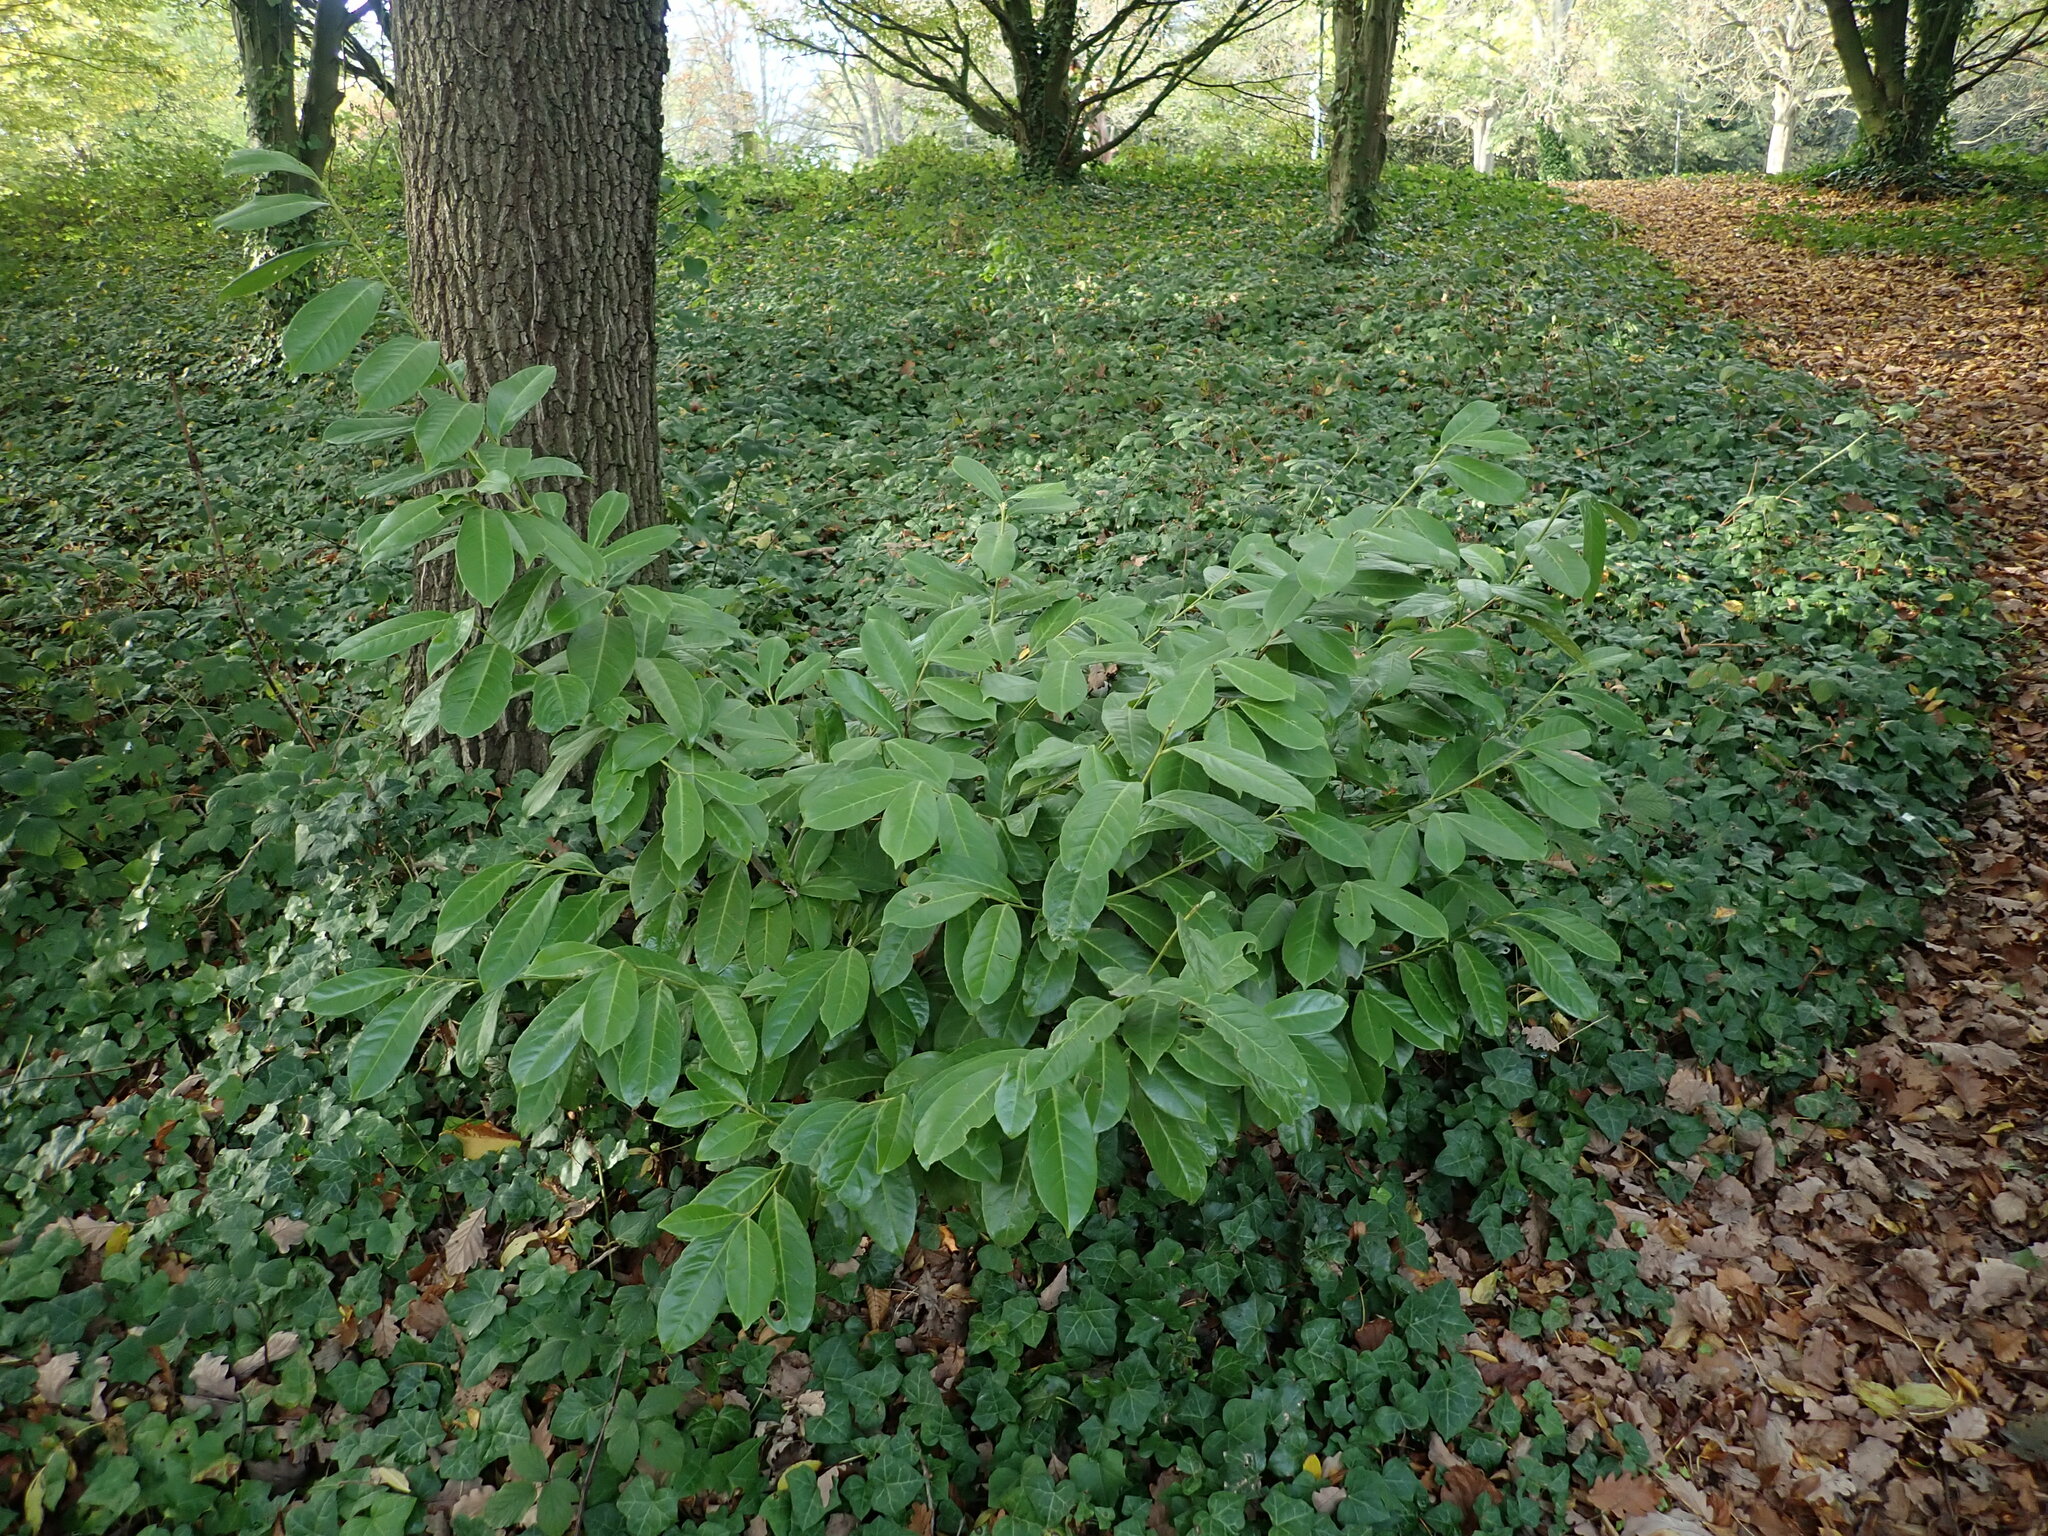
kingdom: Plantae
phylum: Tracheophyta
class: Magnoliopsida
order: Rosales
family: Rosaceae
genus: Prunus
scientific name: Prunus laurocerasus
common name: Cherry laurel
